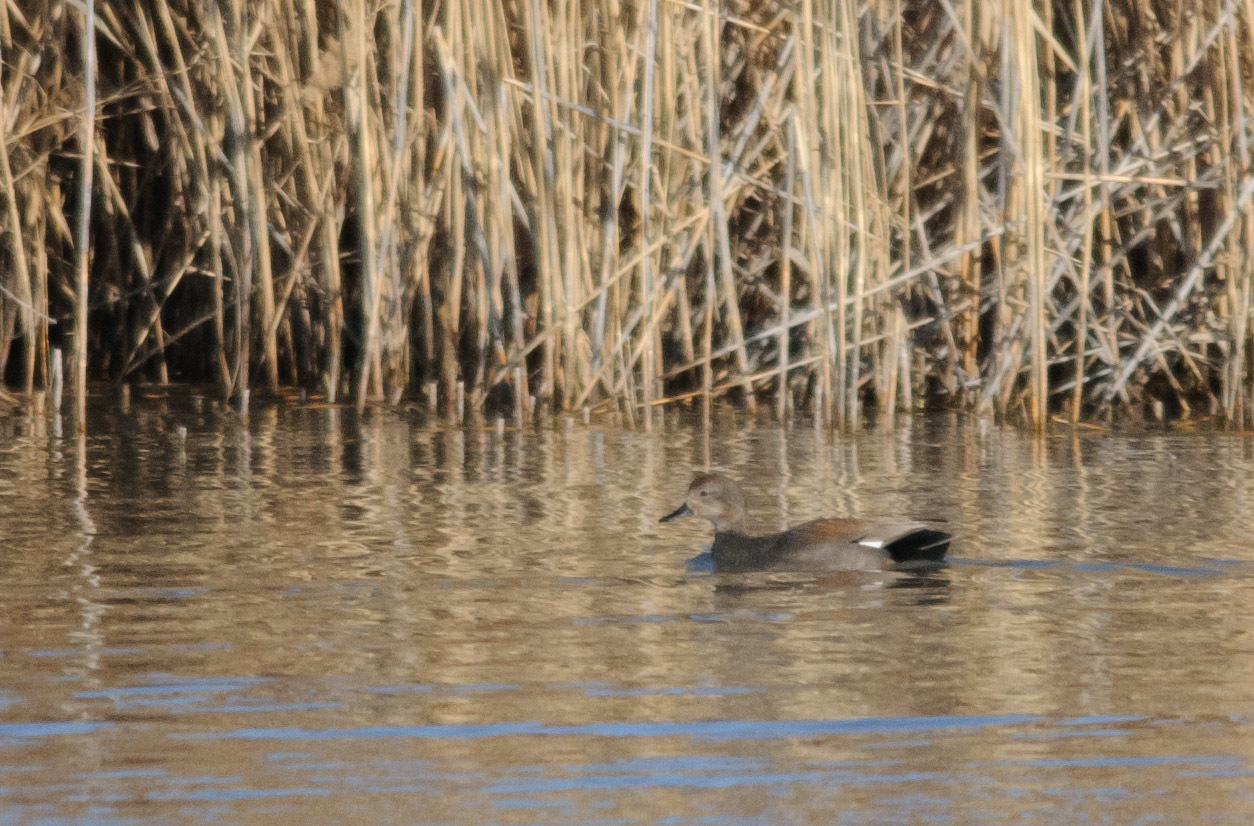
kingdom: Animalia
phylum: Chordata
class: Aves
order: Anseriformes
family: Anatidae
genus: Mareca
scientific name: Mareca strepera
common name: Gadwall
